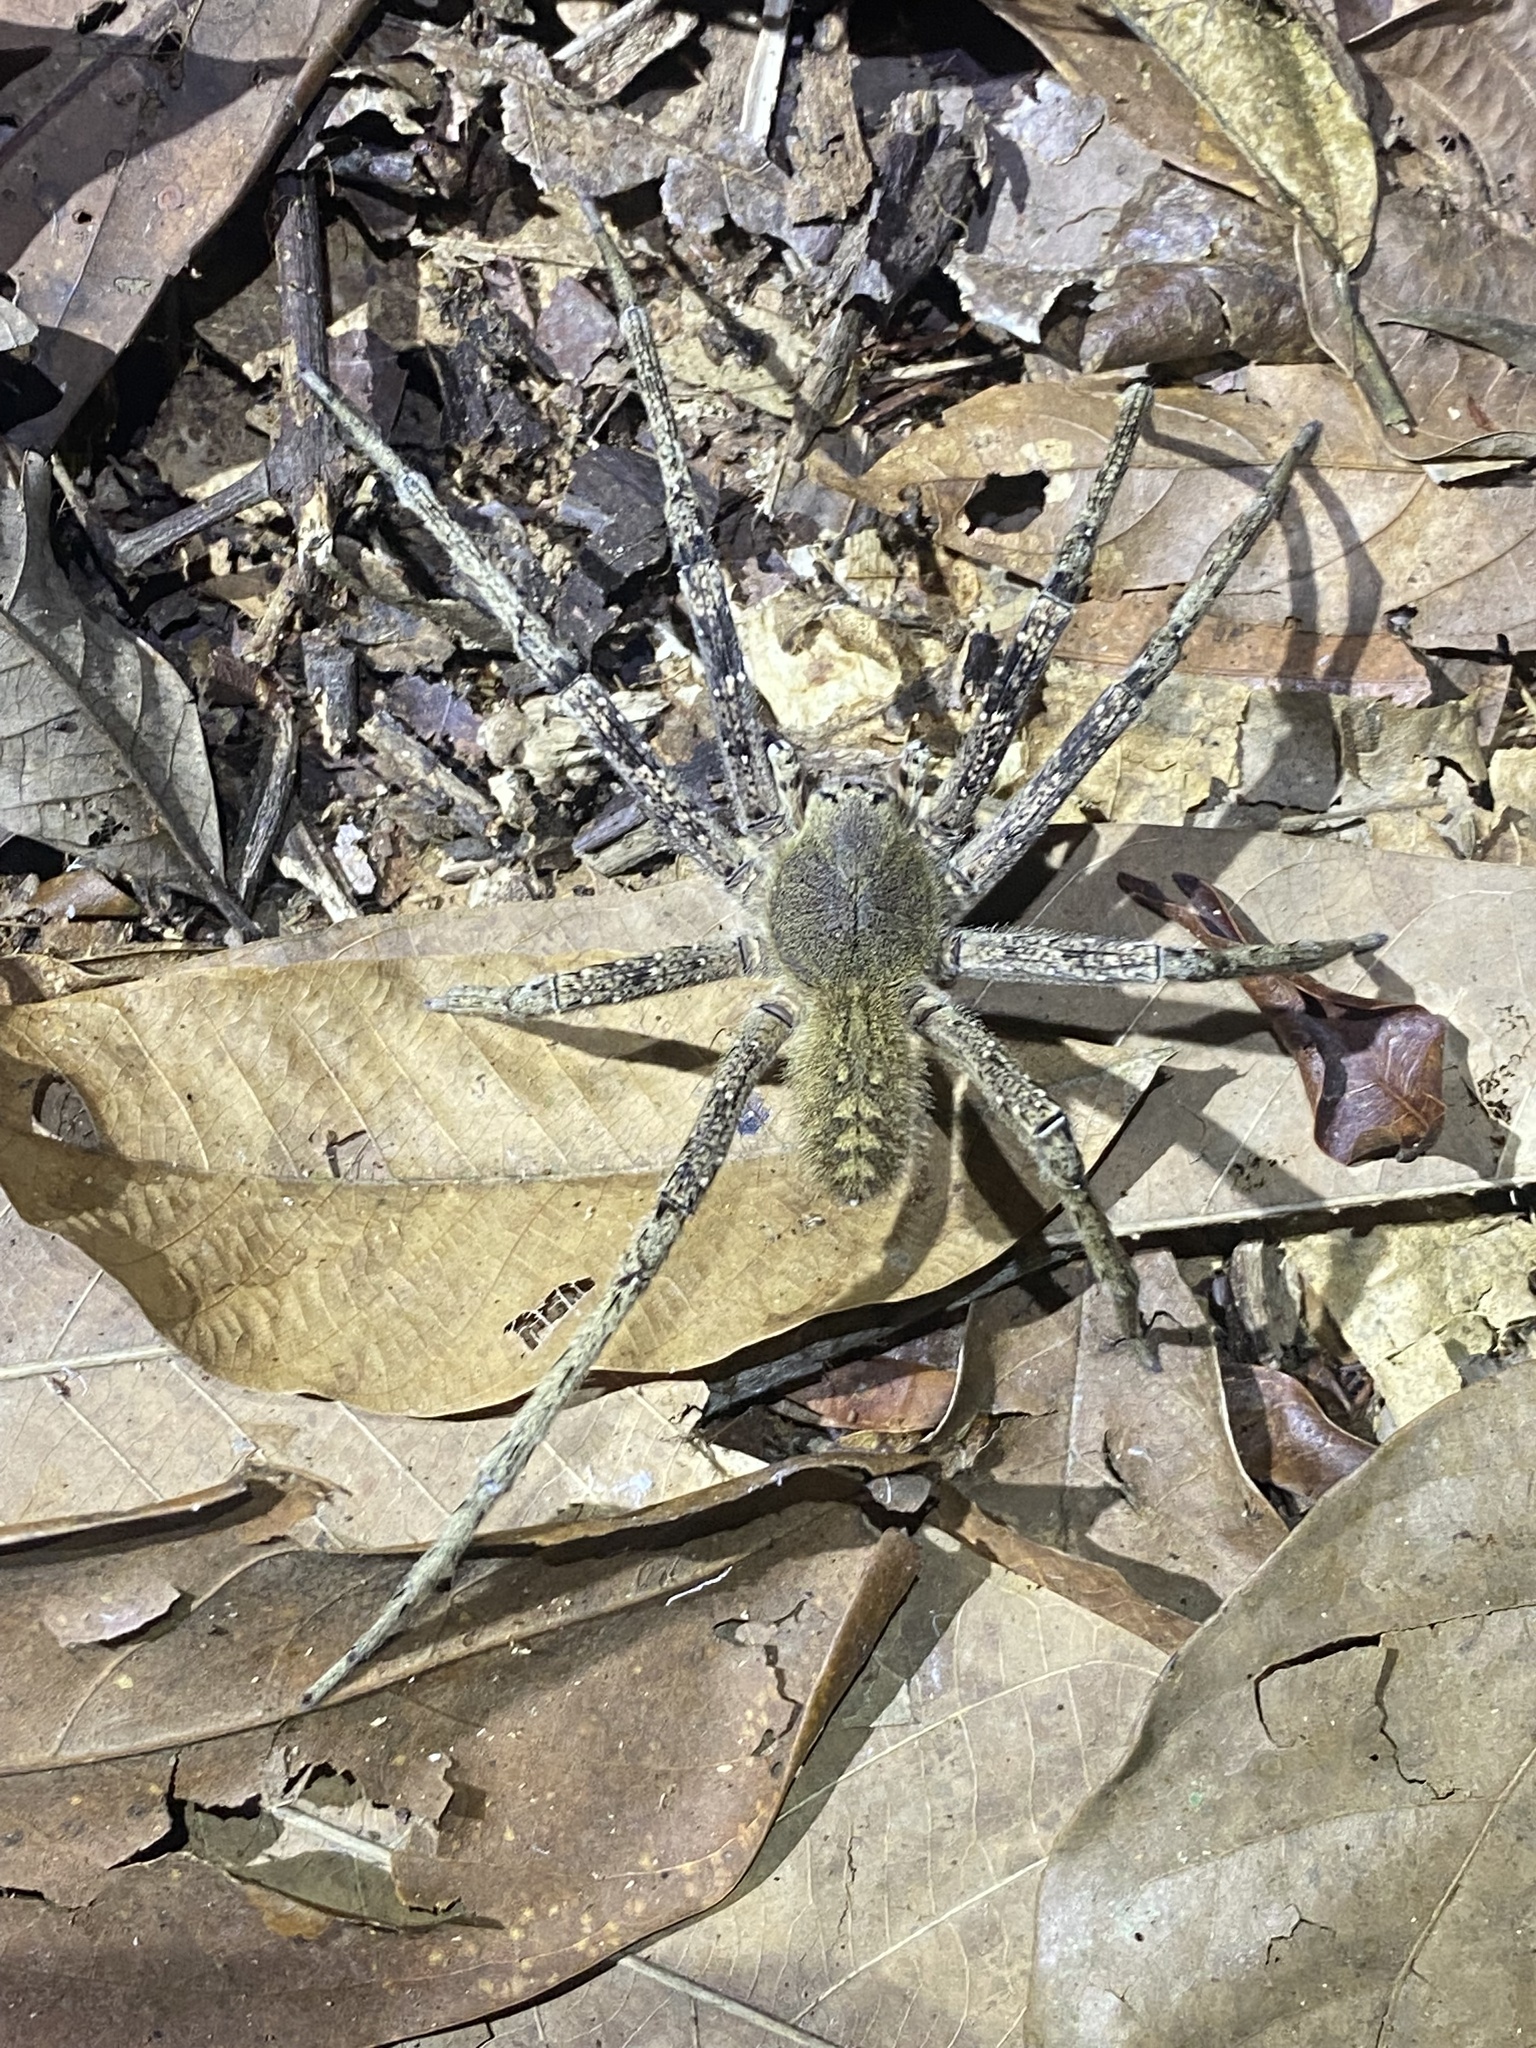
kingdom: Animalia
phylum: Arthropoda
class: Arachnida
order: Araneae
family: Ctenidae
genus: Phoneutria
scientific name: Phoneutria fera
